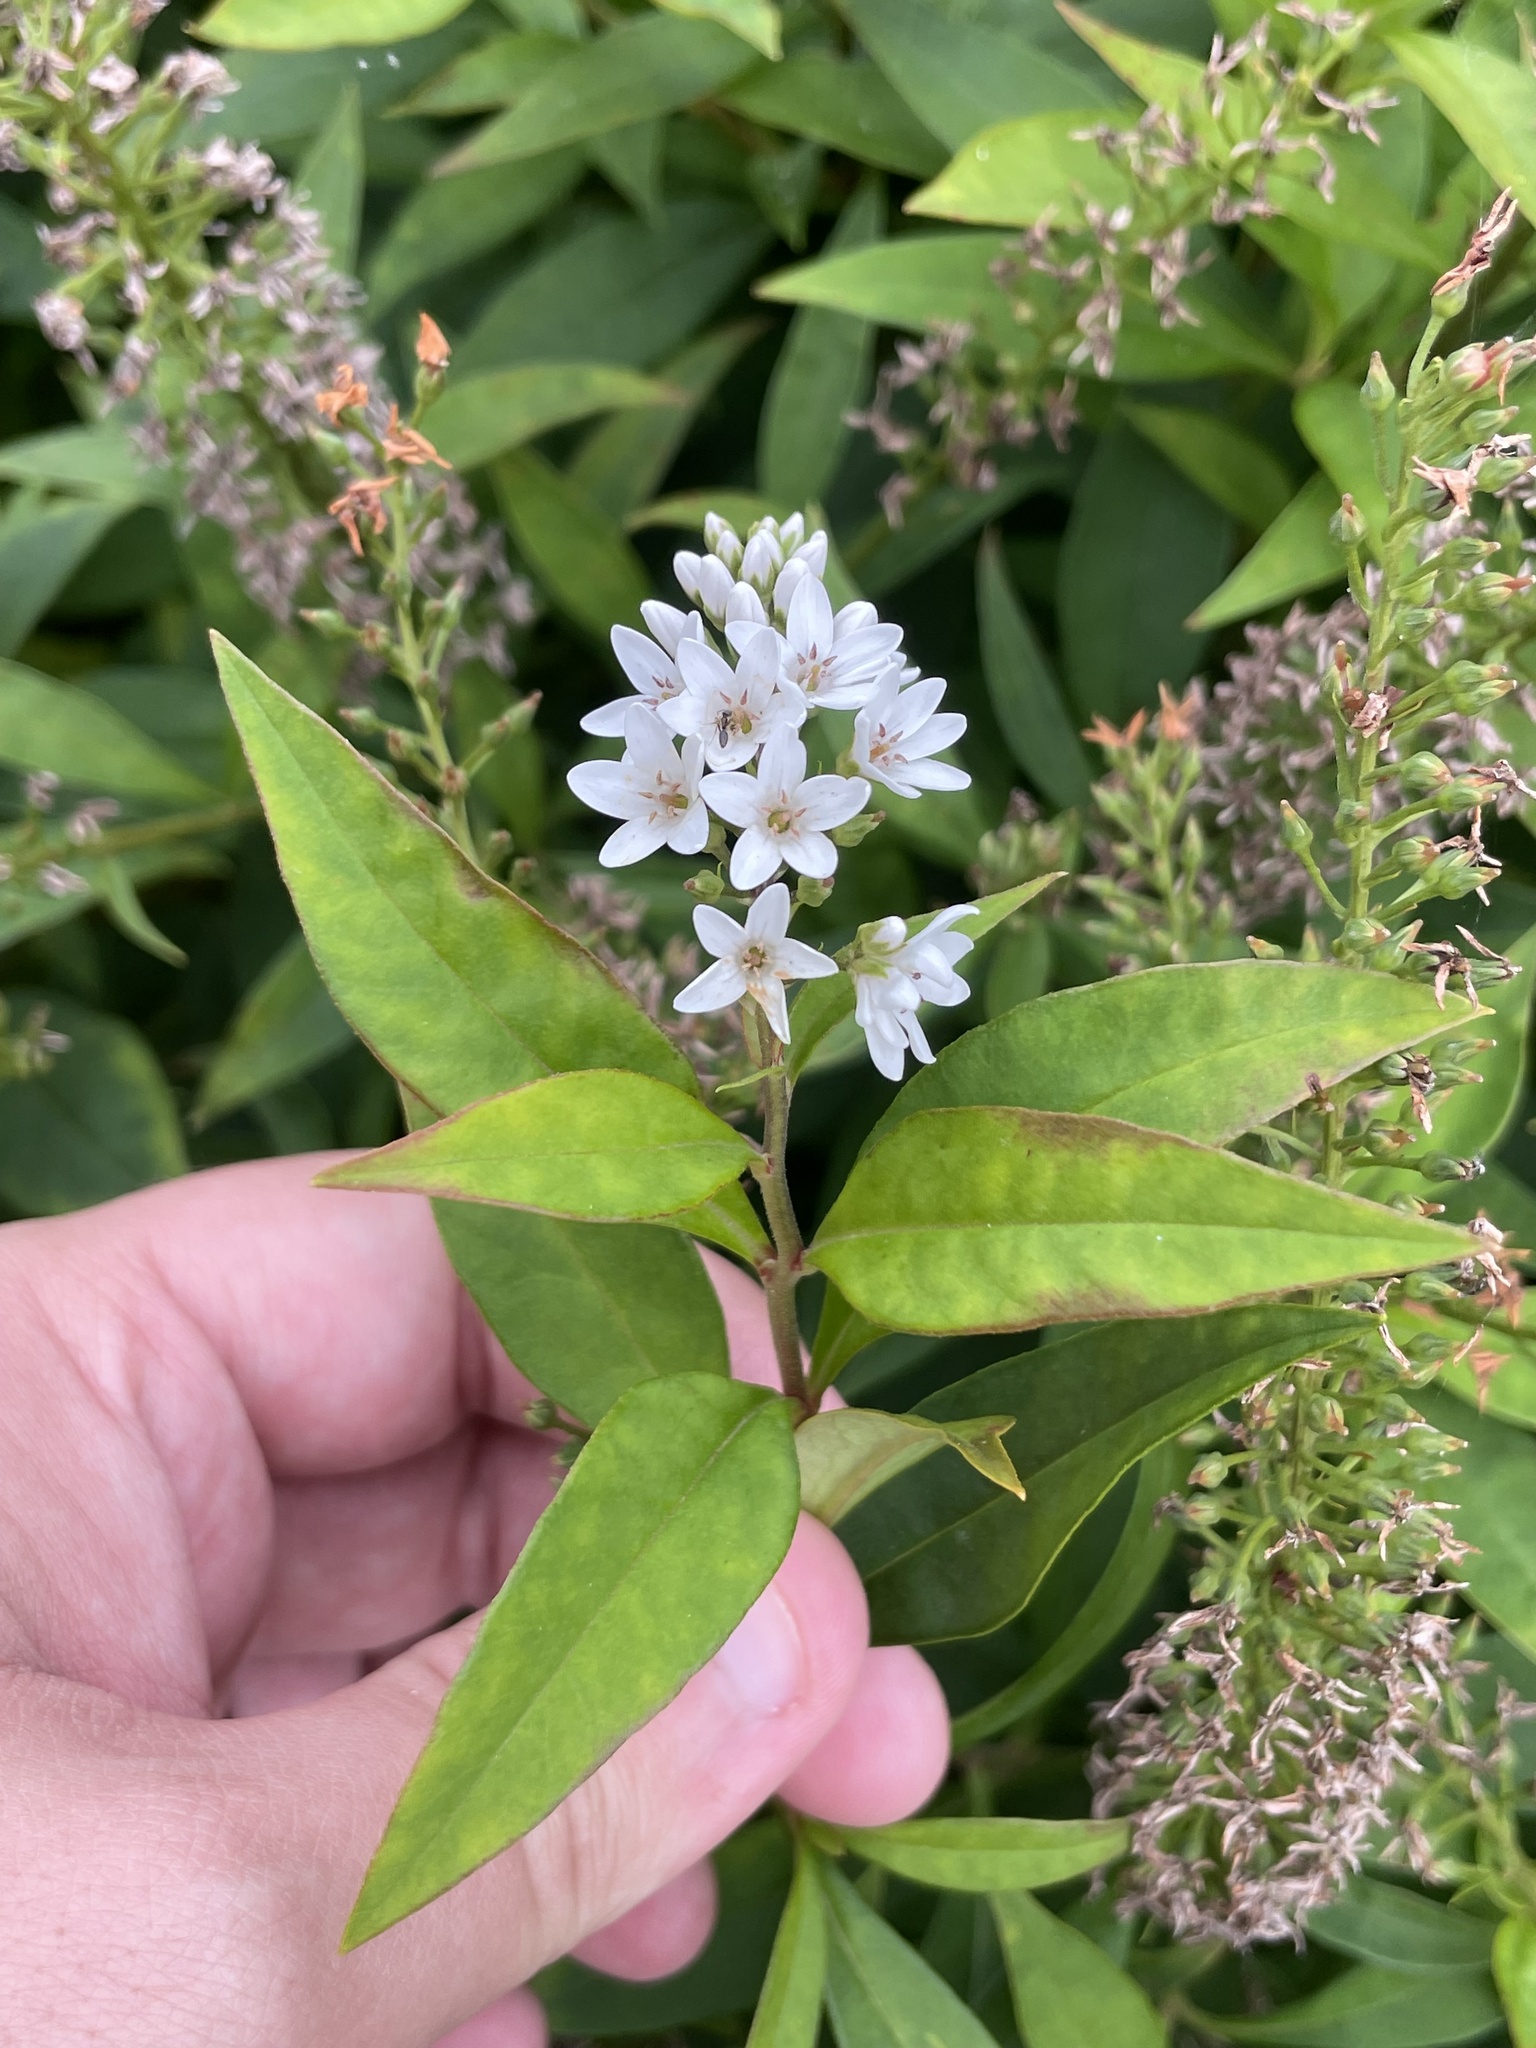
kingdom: Plantae
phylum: Tracheophyta
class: Magnoliopsida
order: Ericales
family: Primulaceae
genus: Lysimachia
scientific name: Lysimachia clethroides
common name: Gooseneck loosestrife
